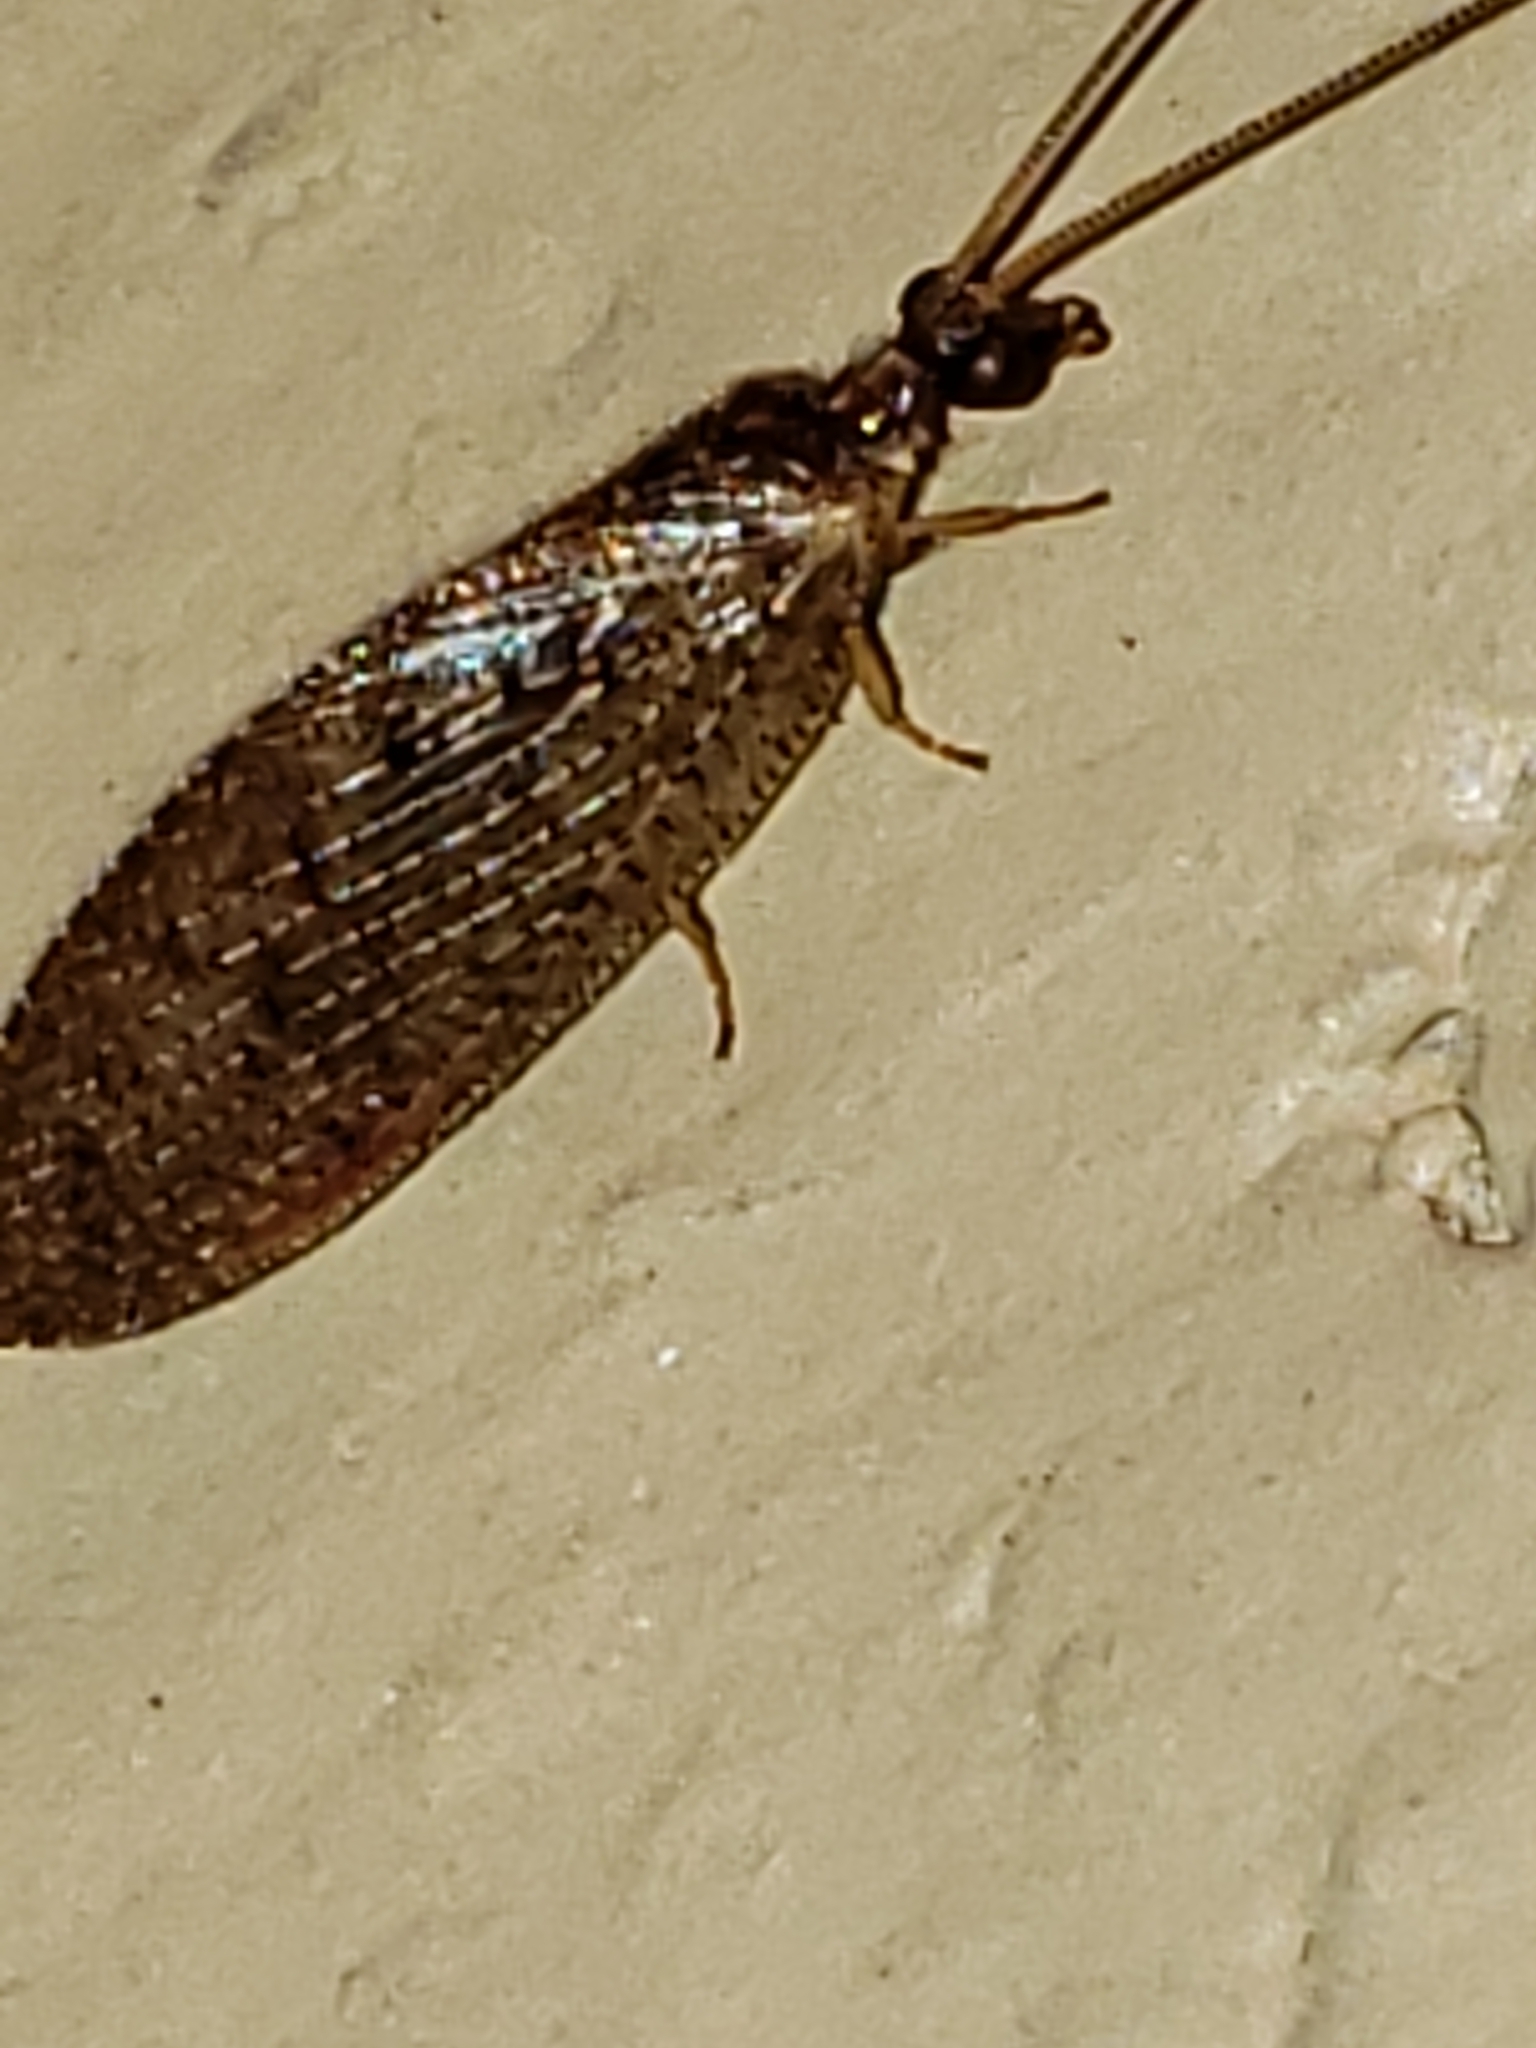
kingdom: Animalia
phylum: Arthropoda
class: Insecta
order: Neuroptera
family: Hemerobiidae
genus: Hemerobius
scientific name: Hemerobius stigma
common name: Brown pine lacewing
